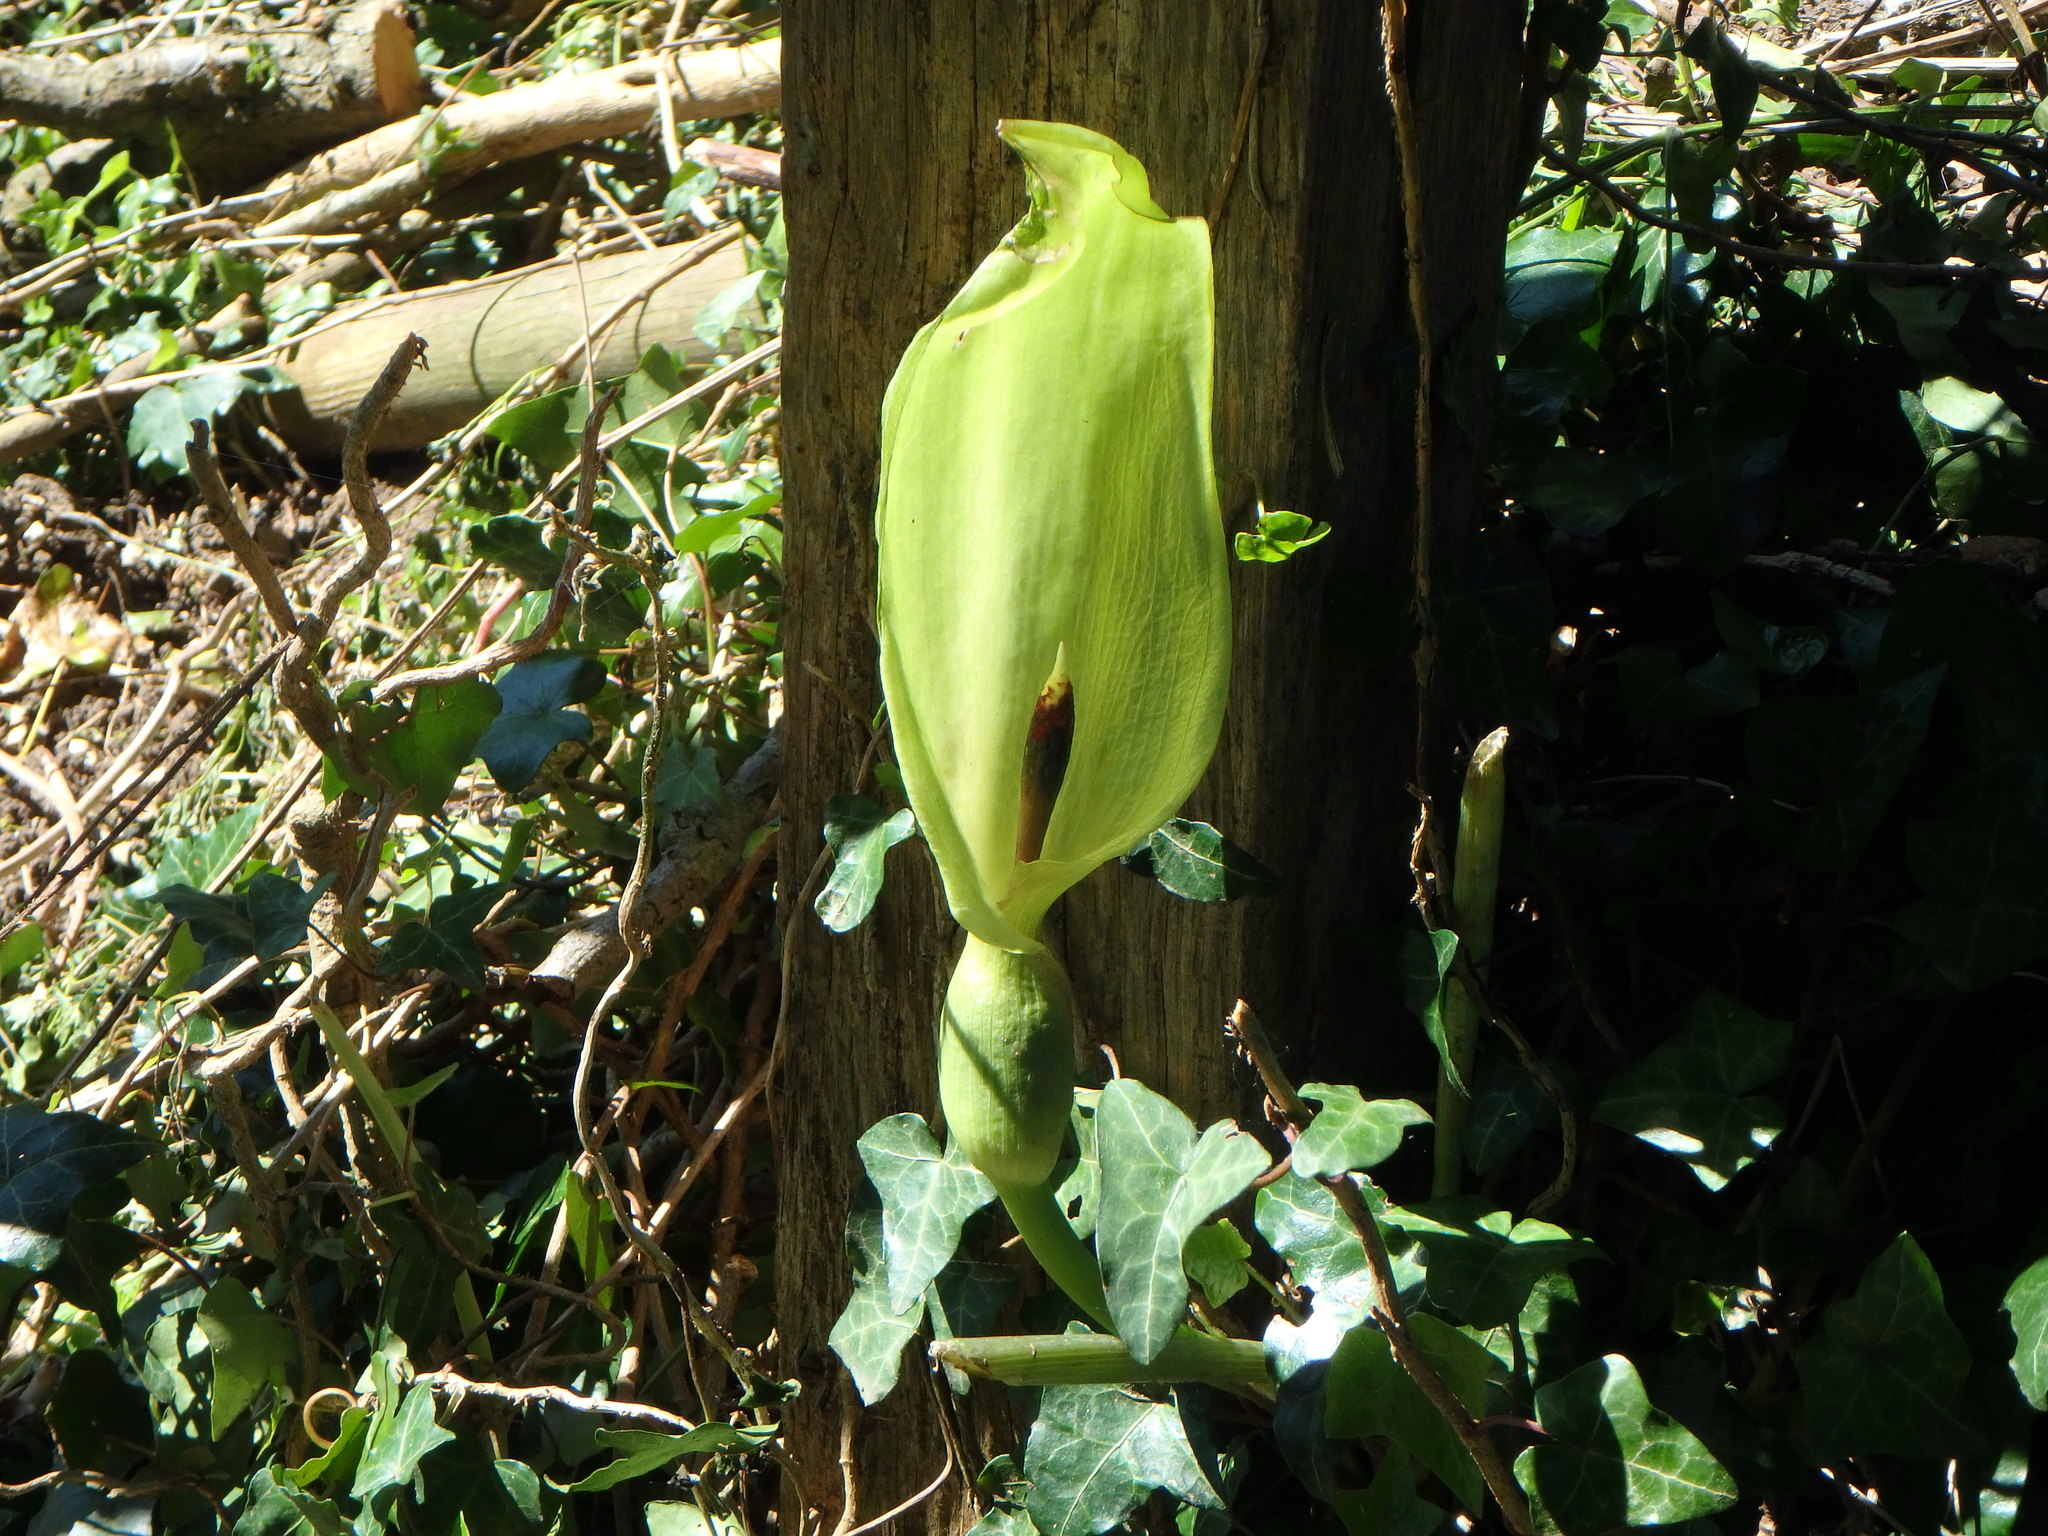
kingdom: Plantae
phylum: Tracheophyta
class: Liliopsida
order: Alismatales
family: Araceae
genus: Arum
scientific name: Arum maculatum
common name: Lords-and-ladies
